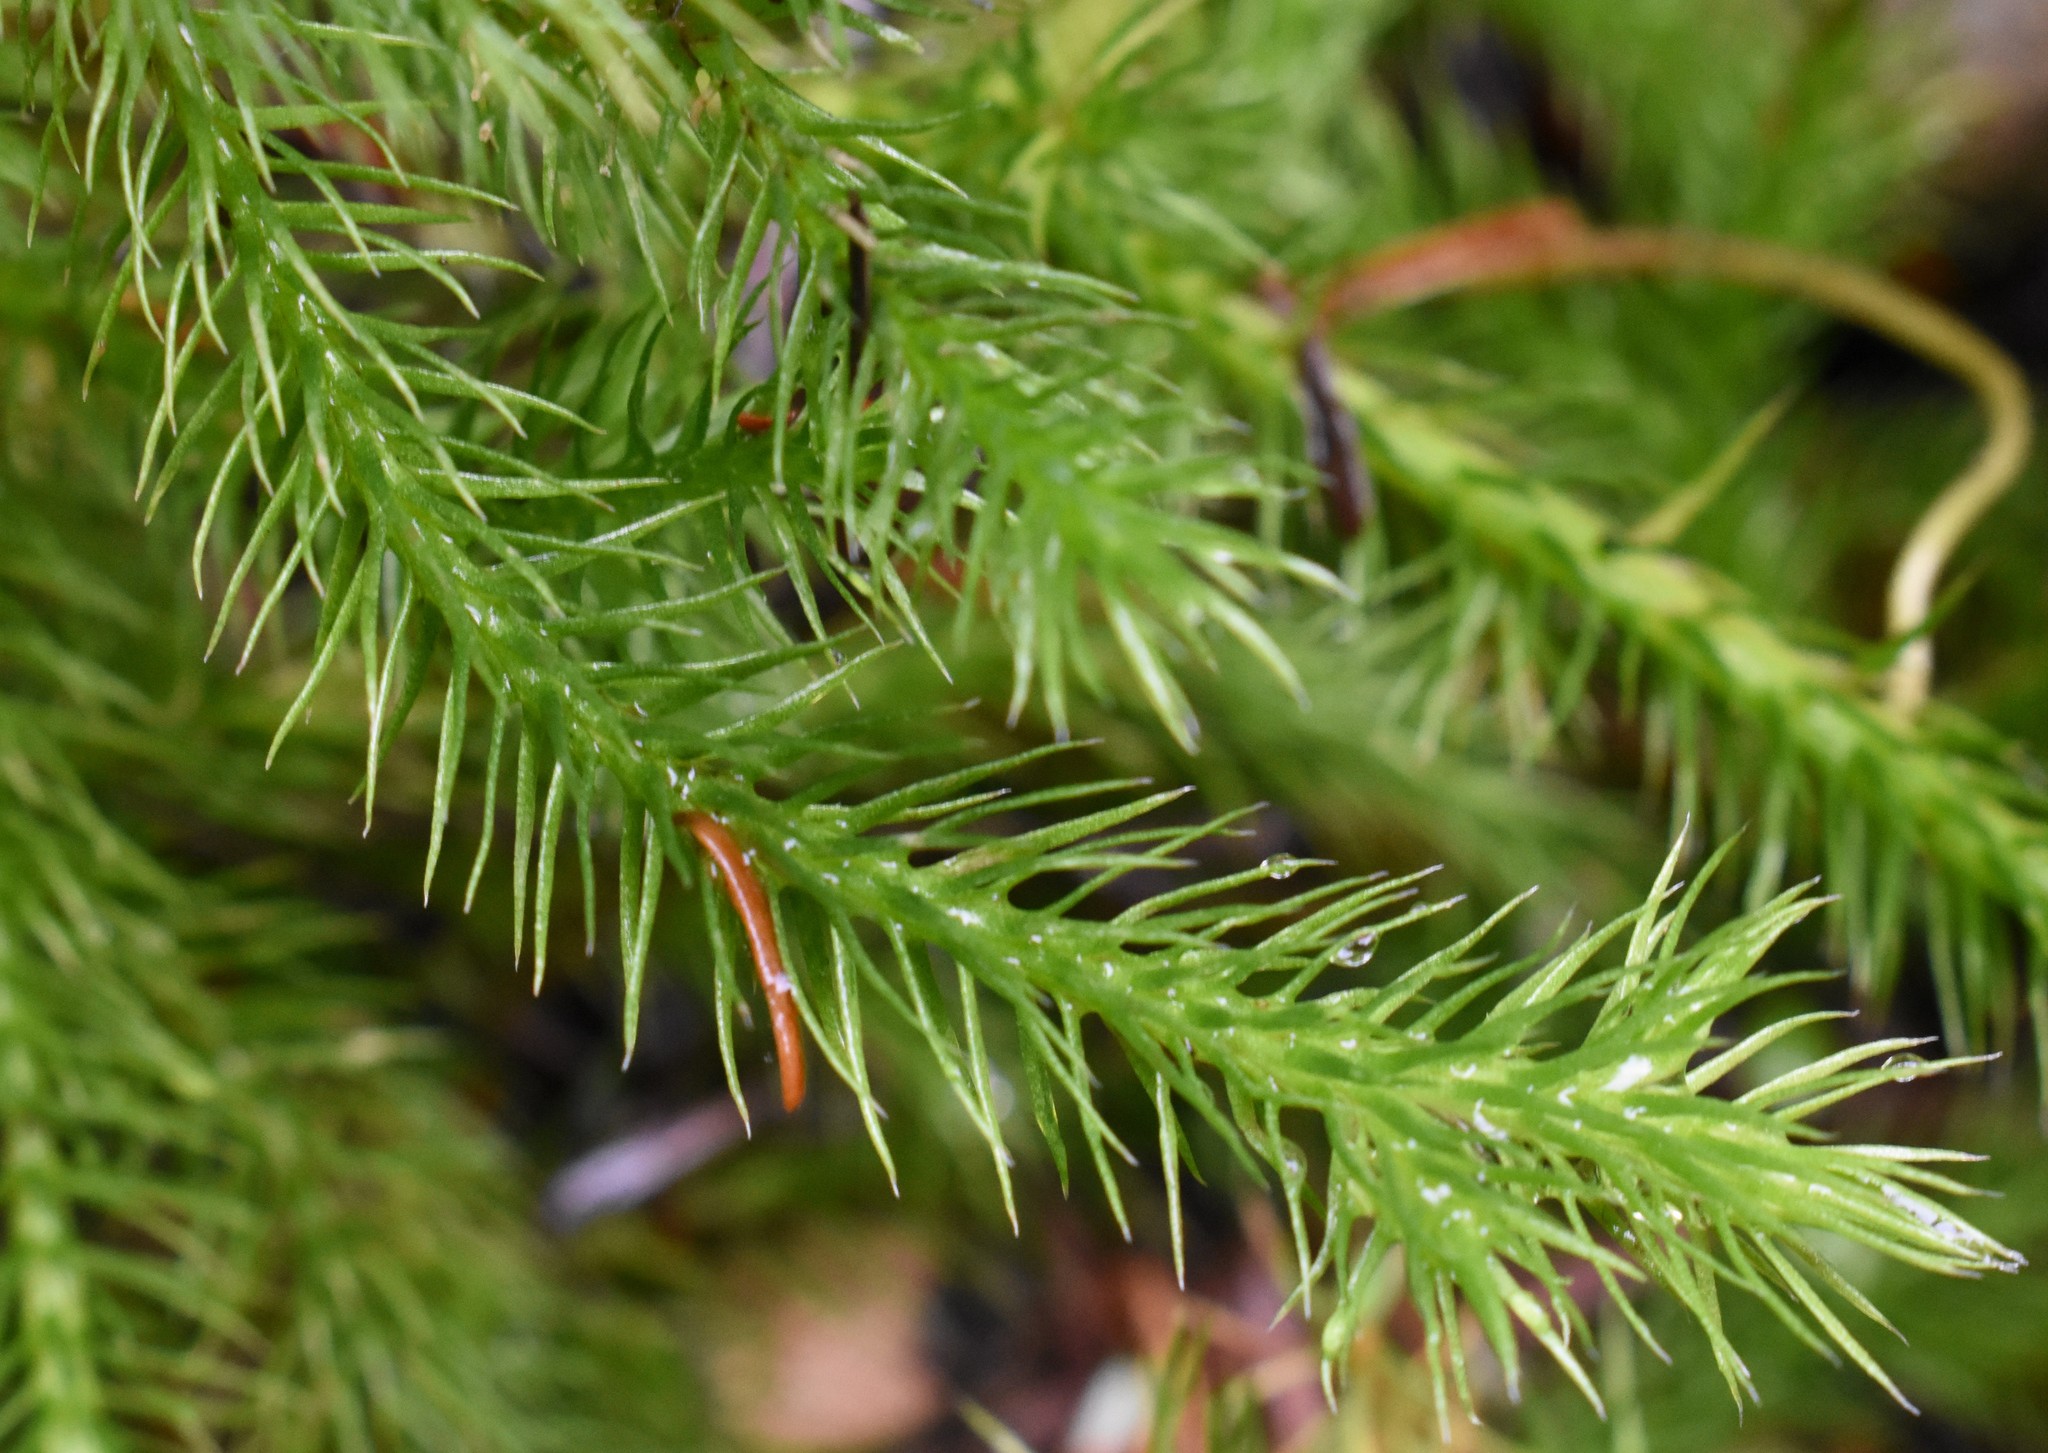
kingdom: Plantae
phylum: Tracheophyta
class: Lycopodiopsida
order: Lycopodiales
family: Lycopodiaceae
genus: Lycopodium
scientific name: Lycopodium clavatum
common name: Stag's-horn clubmoss
